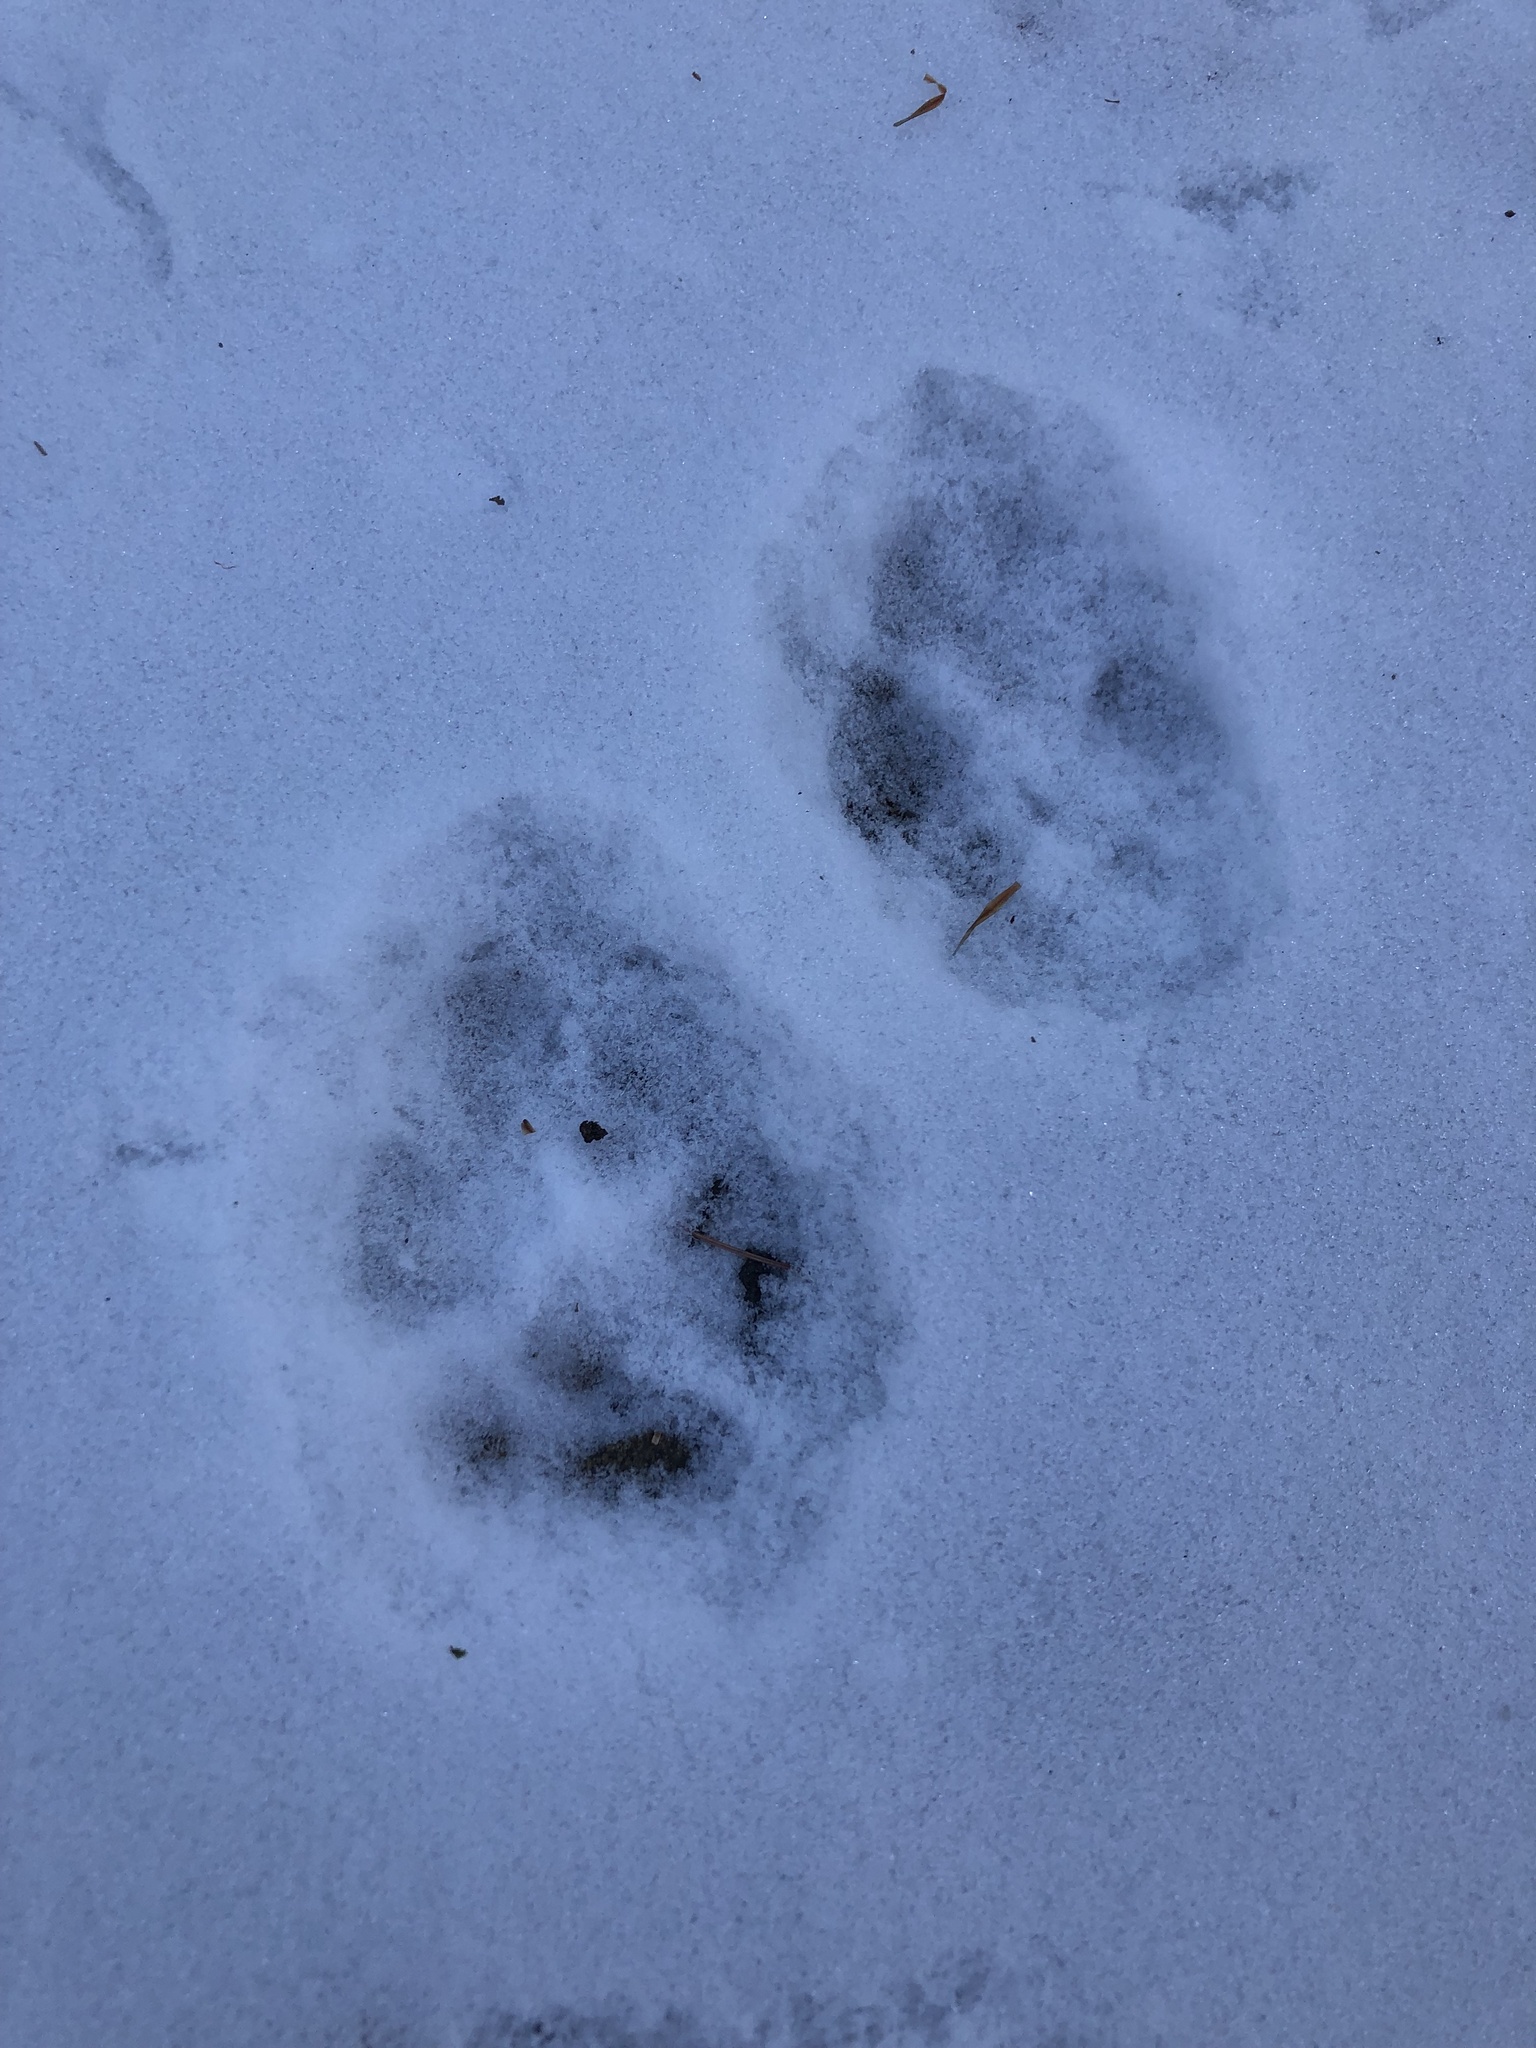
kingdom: Animalia
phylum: Chordata
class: Mammalia
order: Carnivora
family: Canidae
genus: Canis
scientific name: Canis latrans
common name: Coyote
